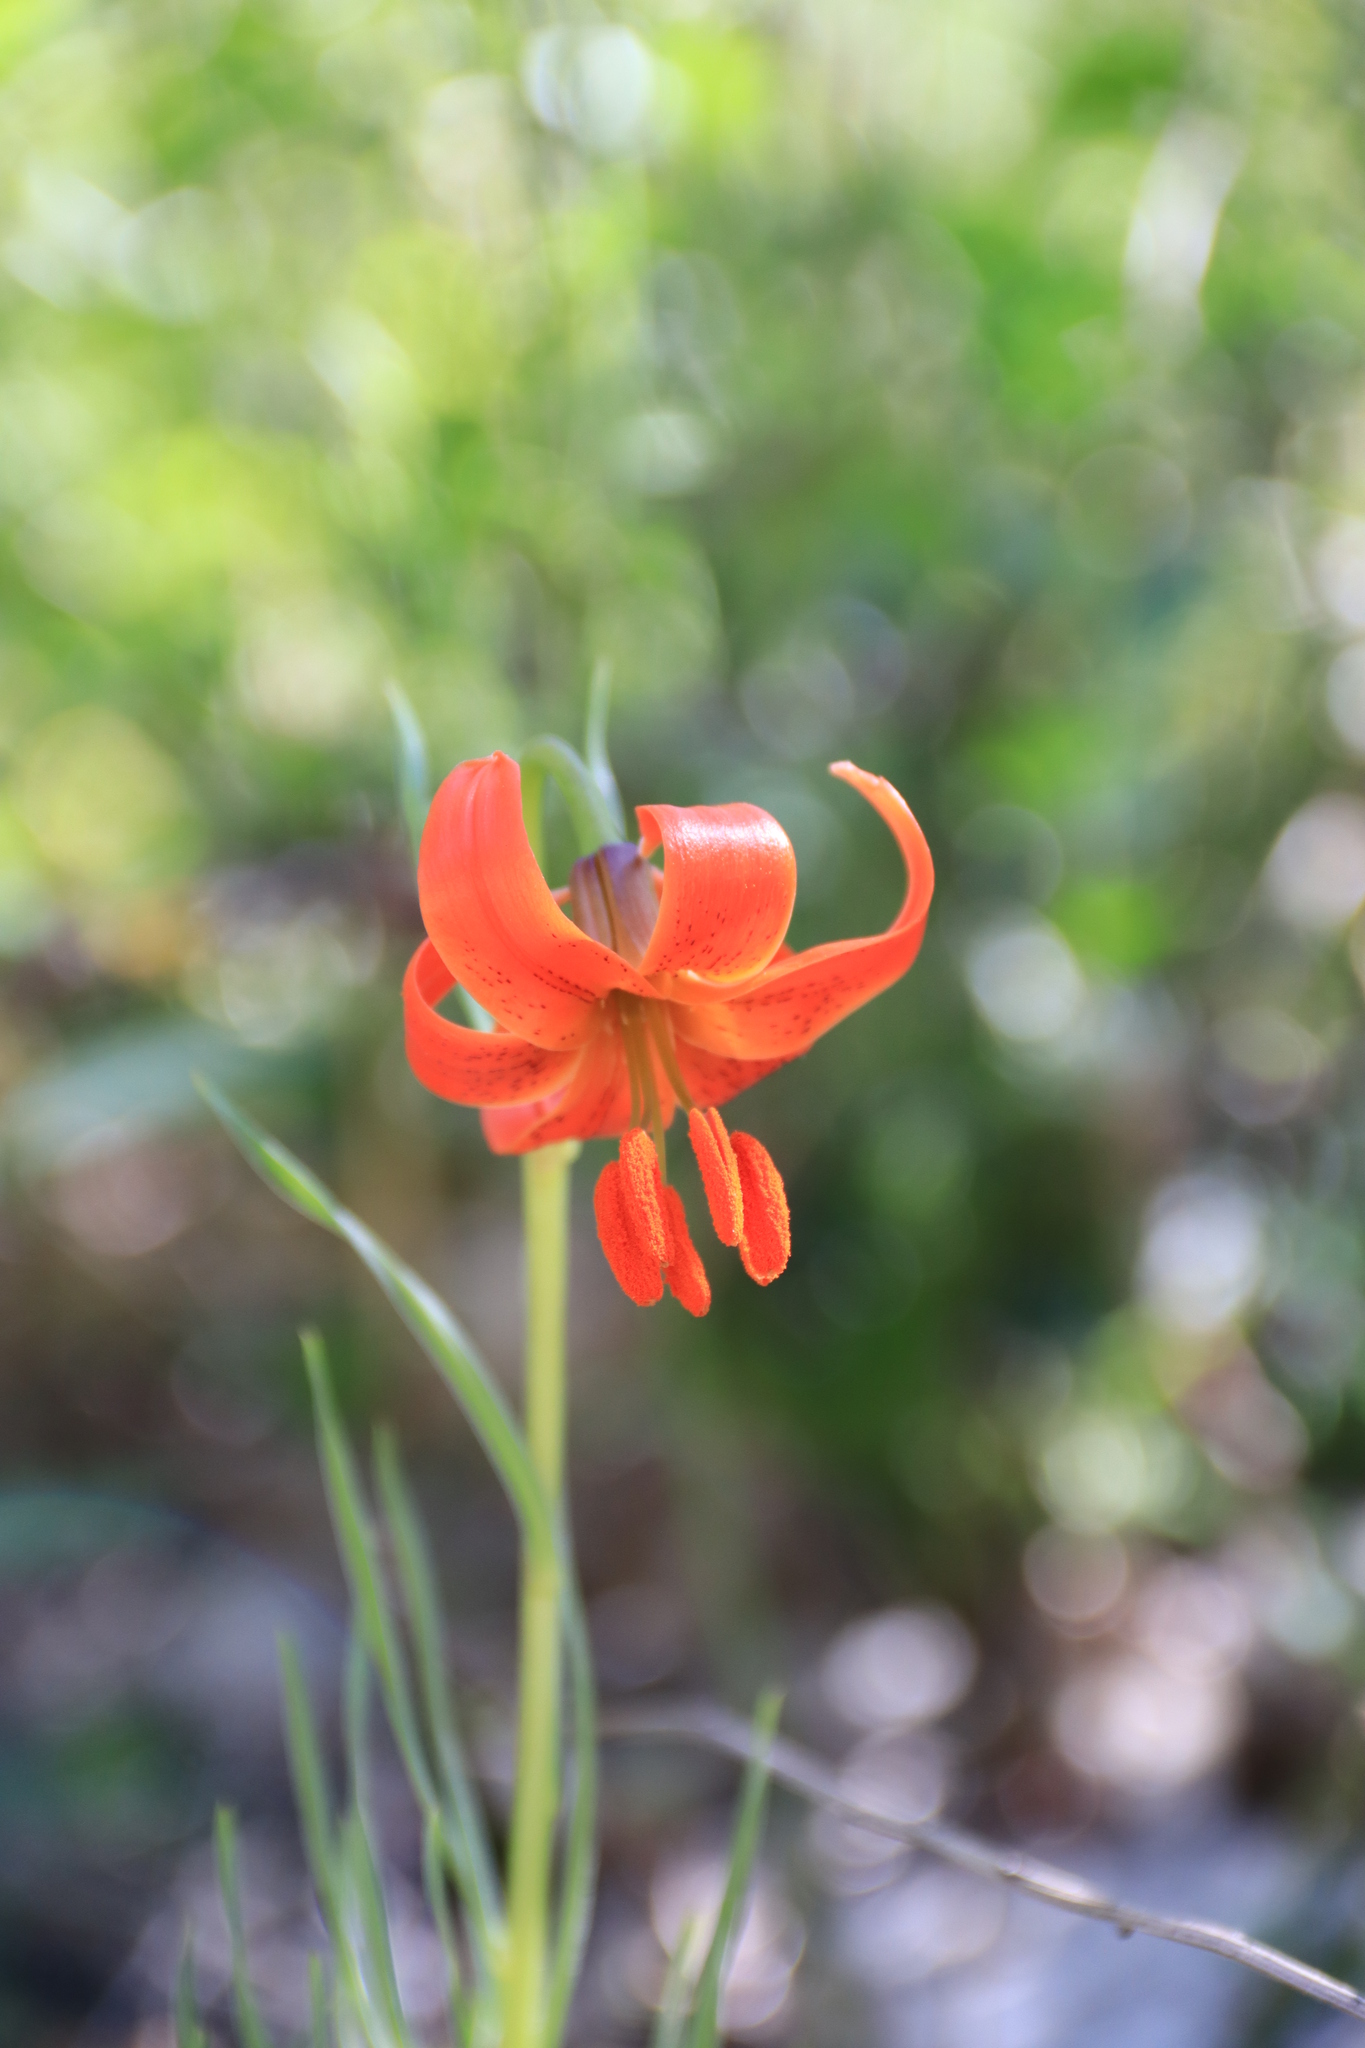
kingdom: Plantae
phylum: Tracheophyta
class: Liliopsida
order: Liliales
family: Liliaceae
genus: Lilium
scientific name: Lilium pomponium
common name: Minor turk's-cap lily
